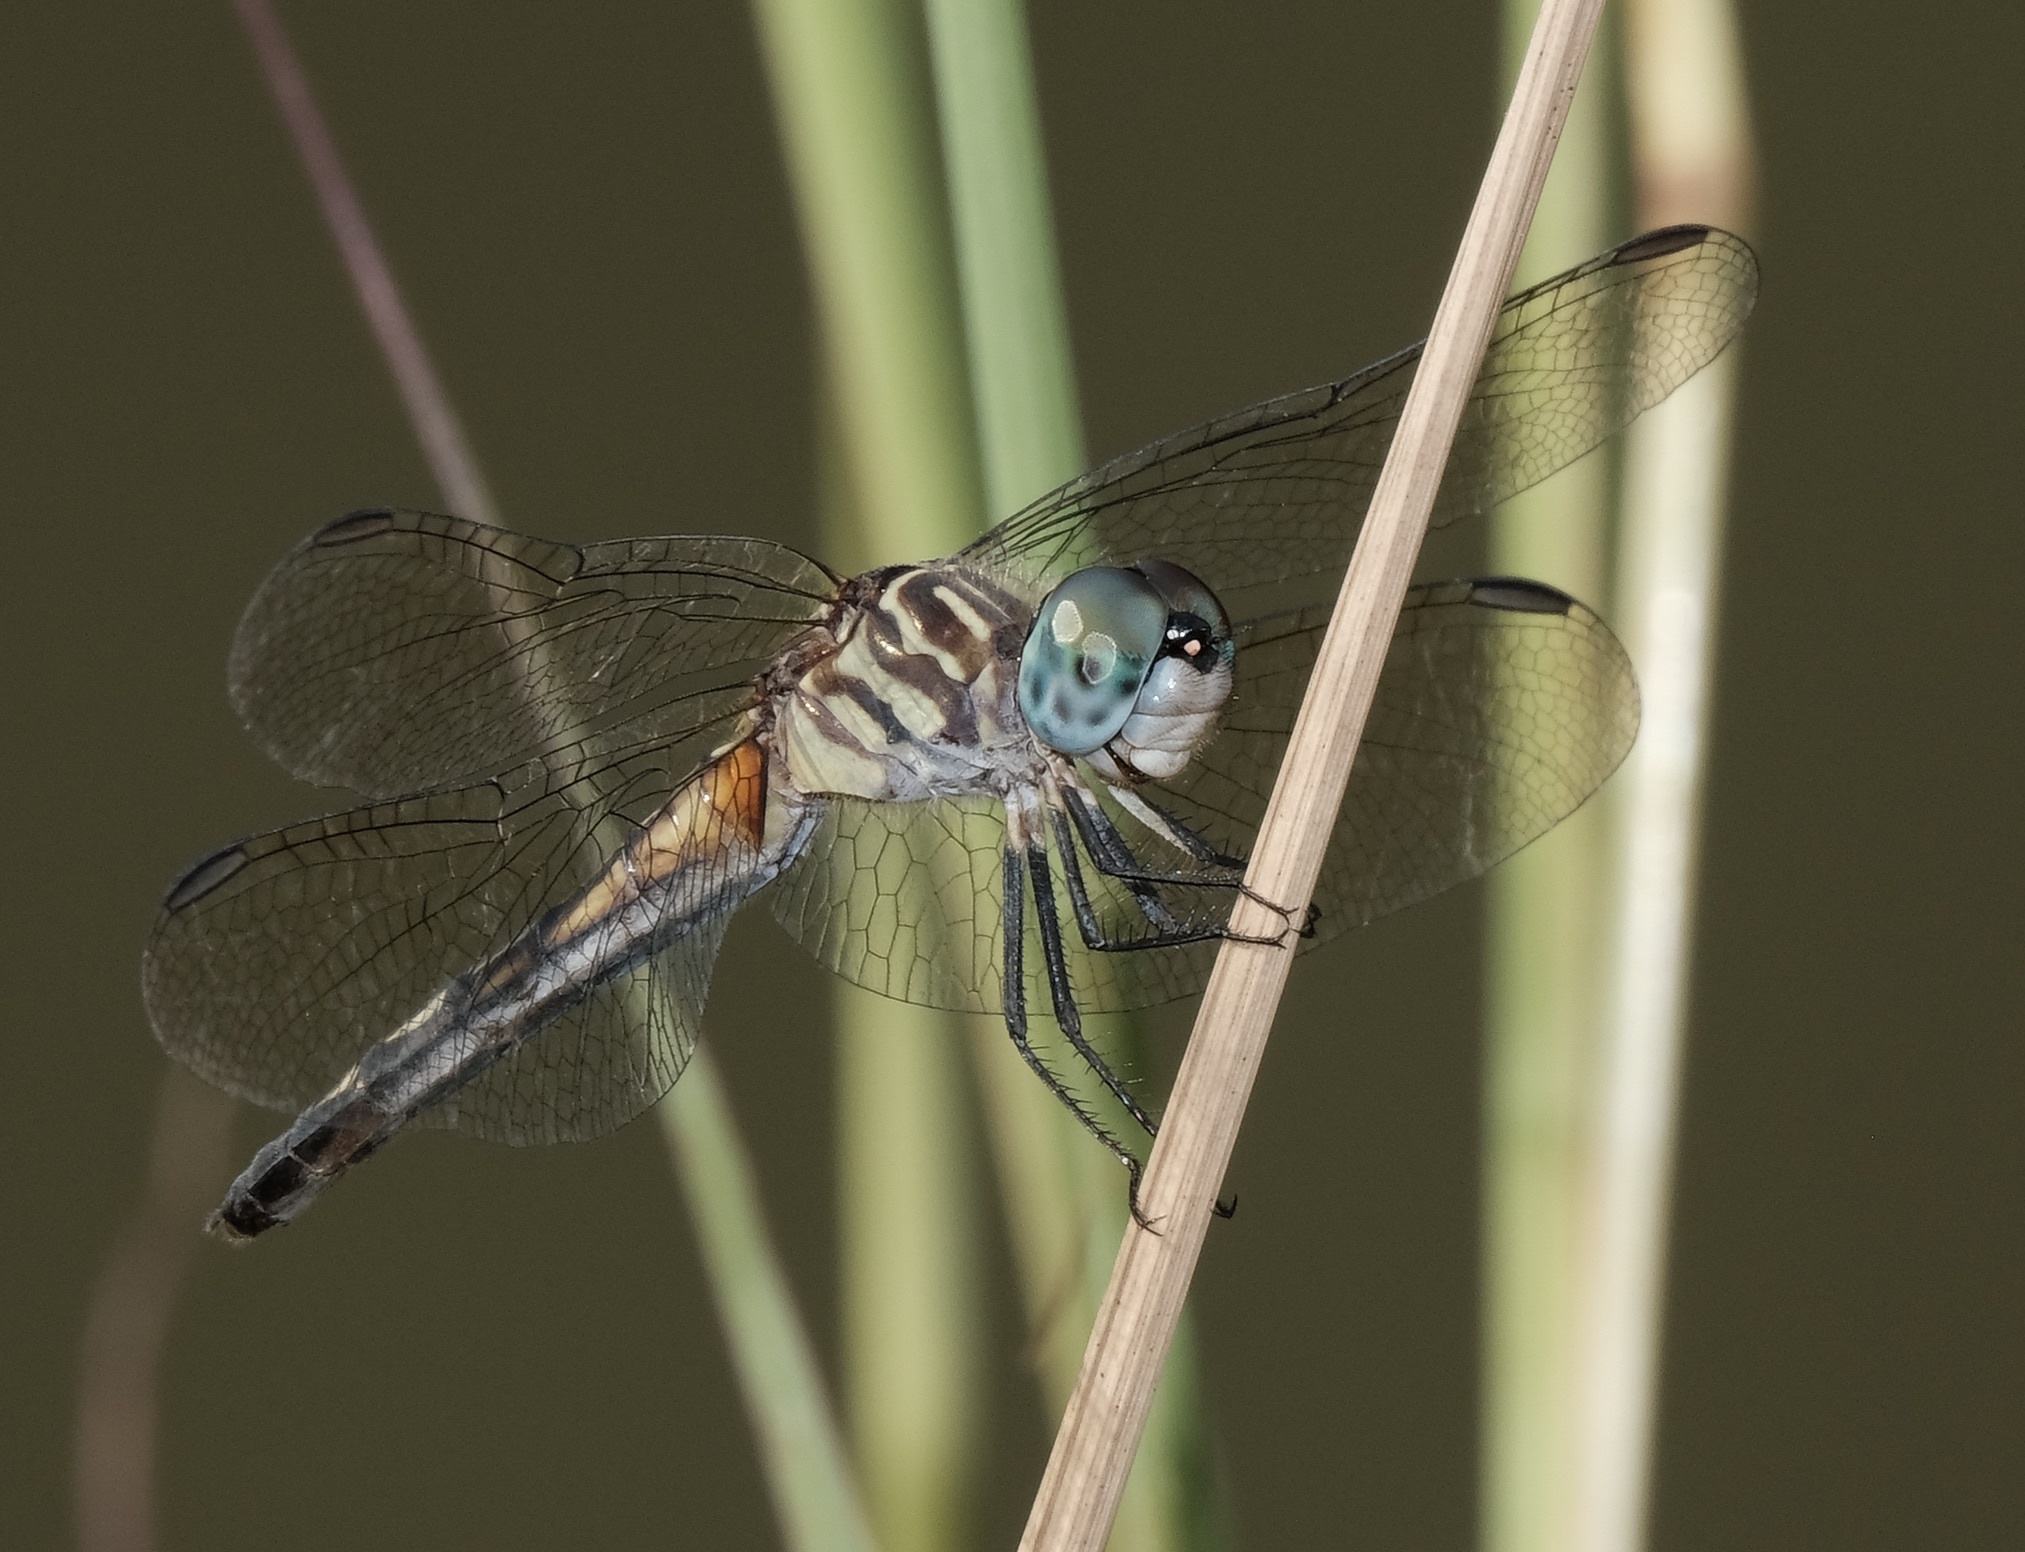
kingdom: Animalia
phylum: Arthropoda
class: Insecta
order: Odonata
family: Libellulidae
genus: Pachydiplax
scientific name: Pachydiplax longipennis
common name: Blue dasher
